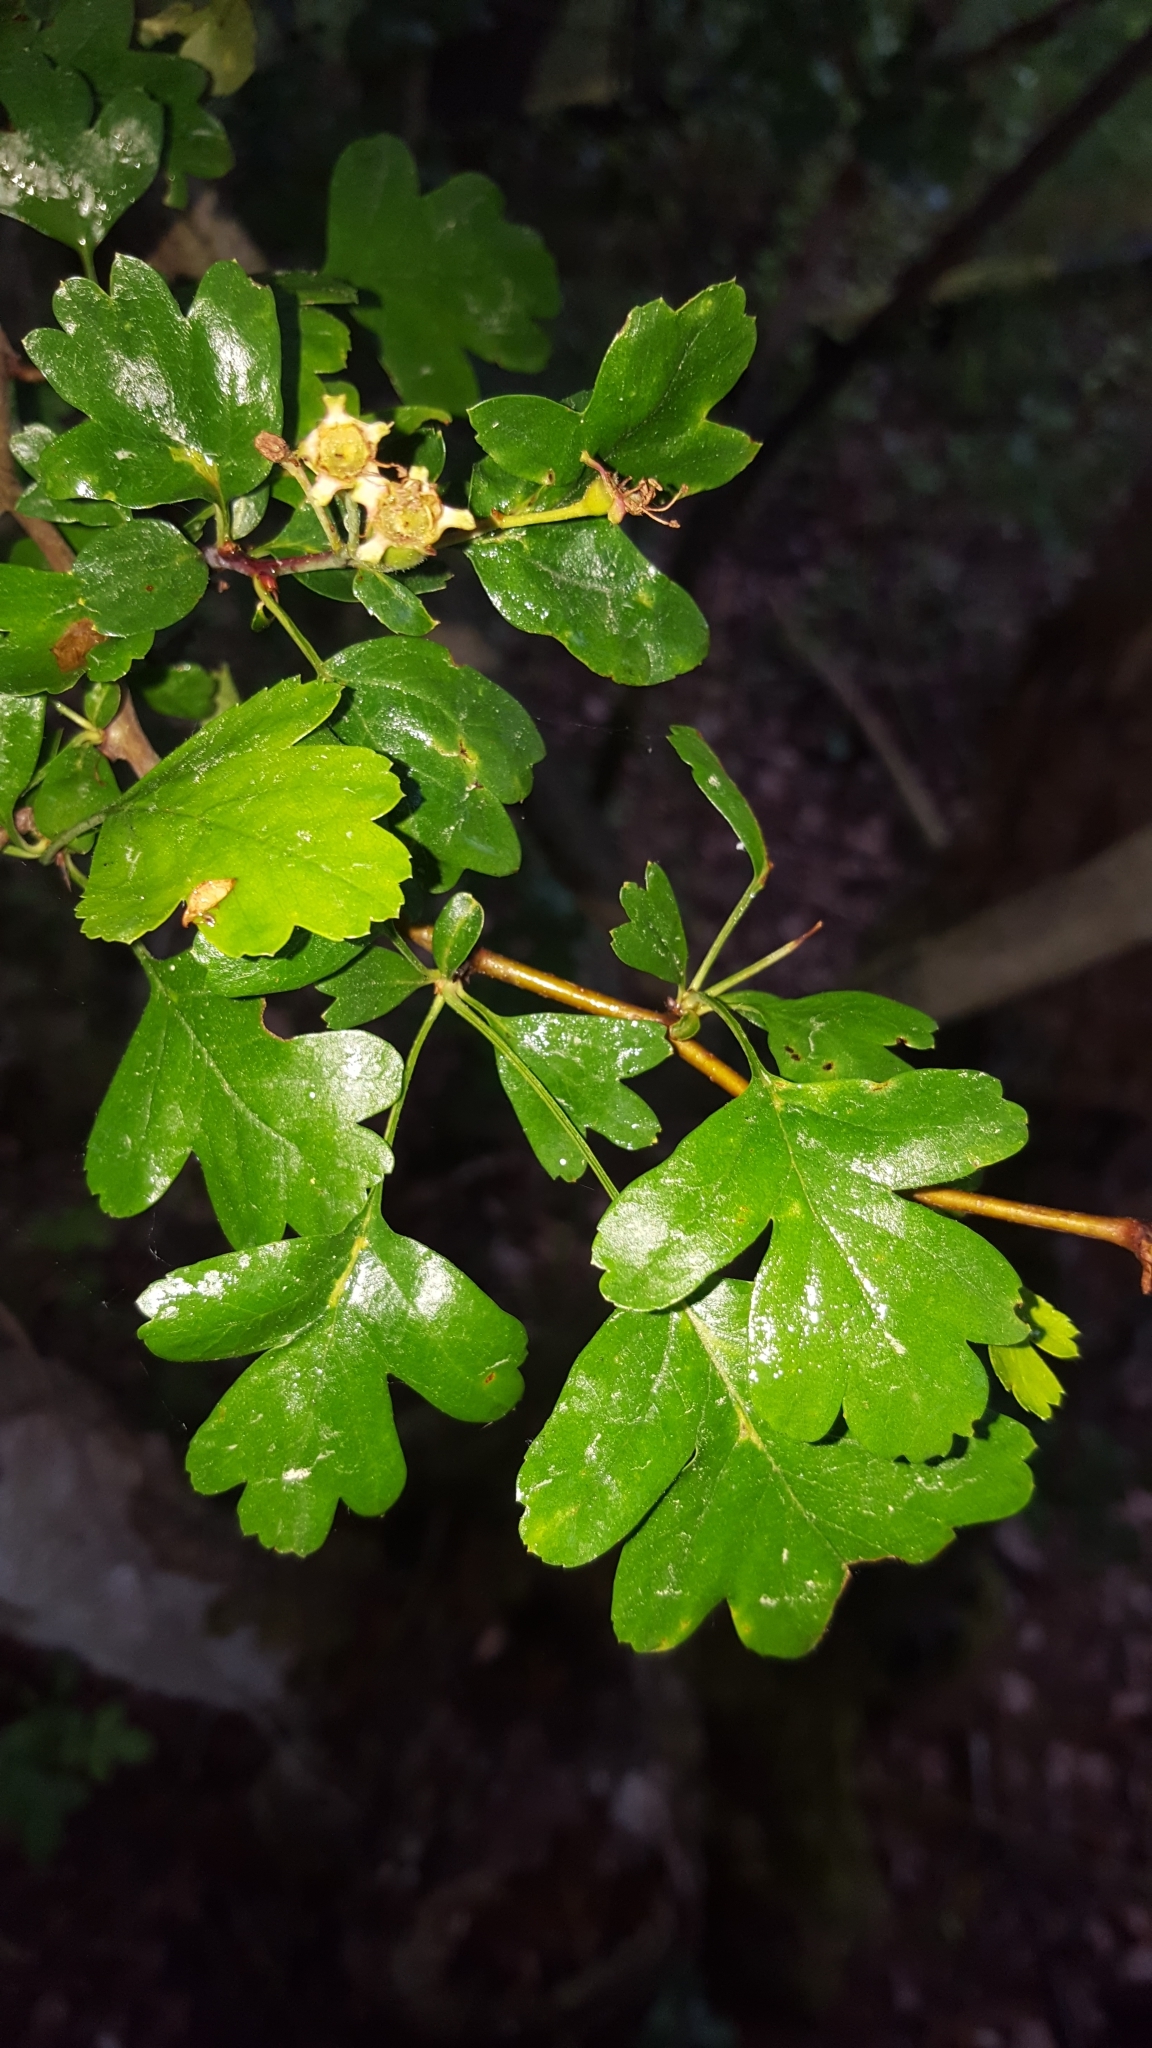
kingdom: Plantae
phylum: Tracheophyta
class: Magnoliopsida
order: Rosales
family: Rosaceae
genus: Crataegus
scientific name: Crataegus monogyna
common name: Hawthorn
